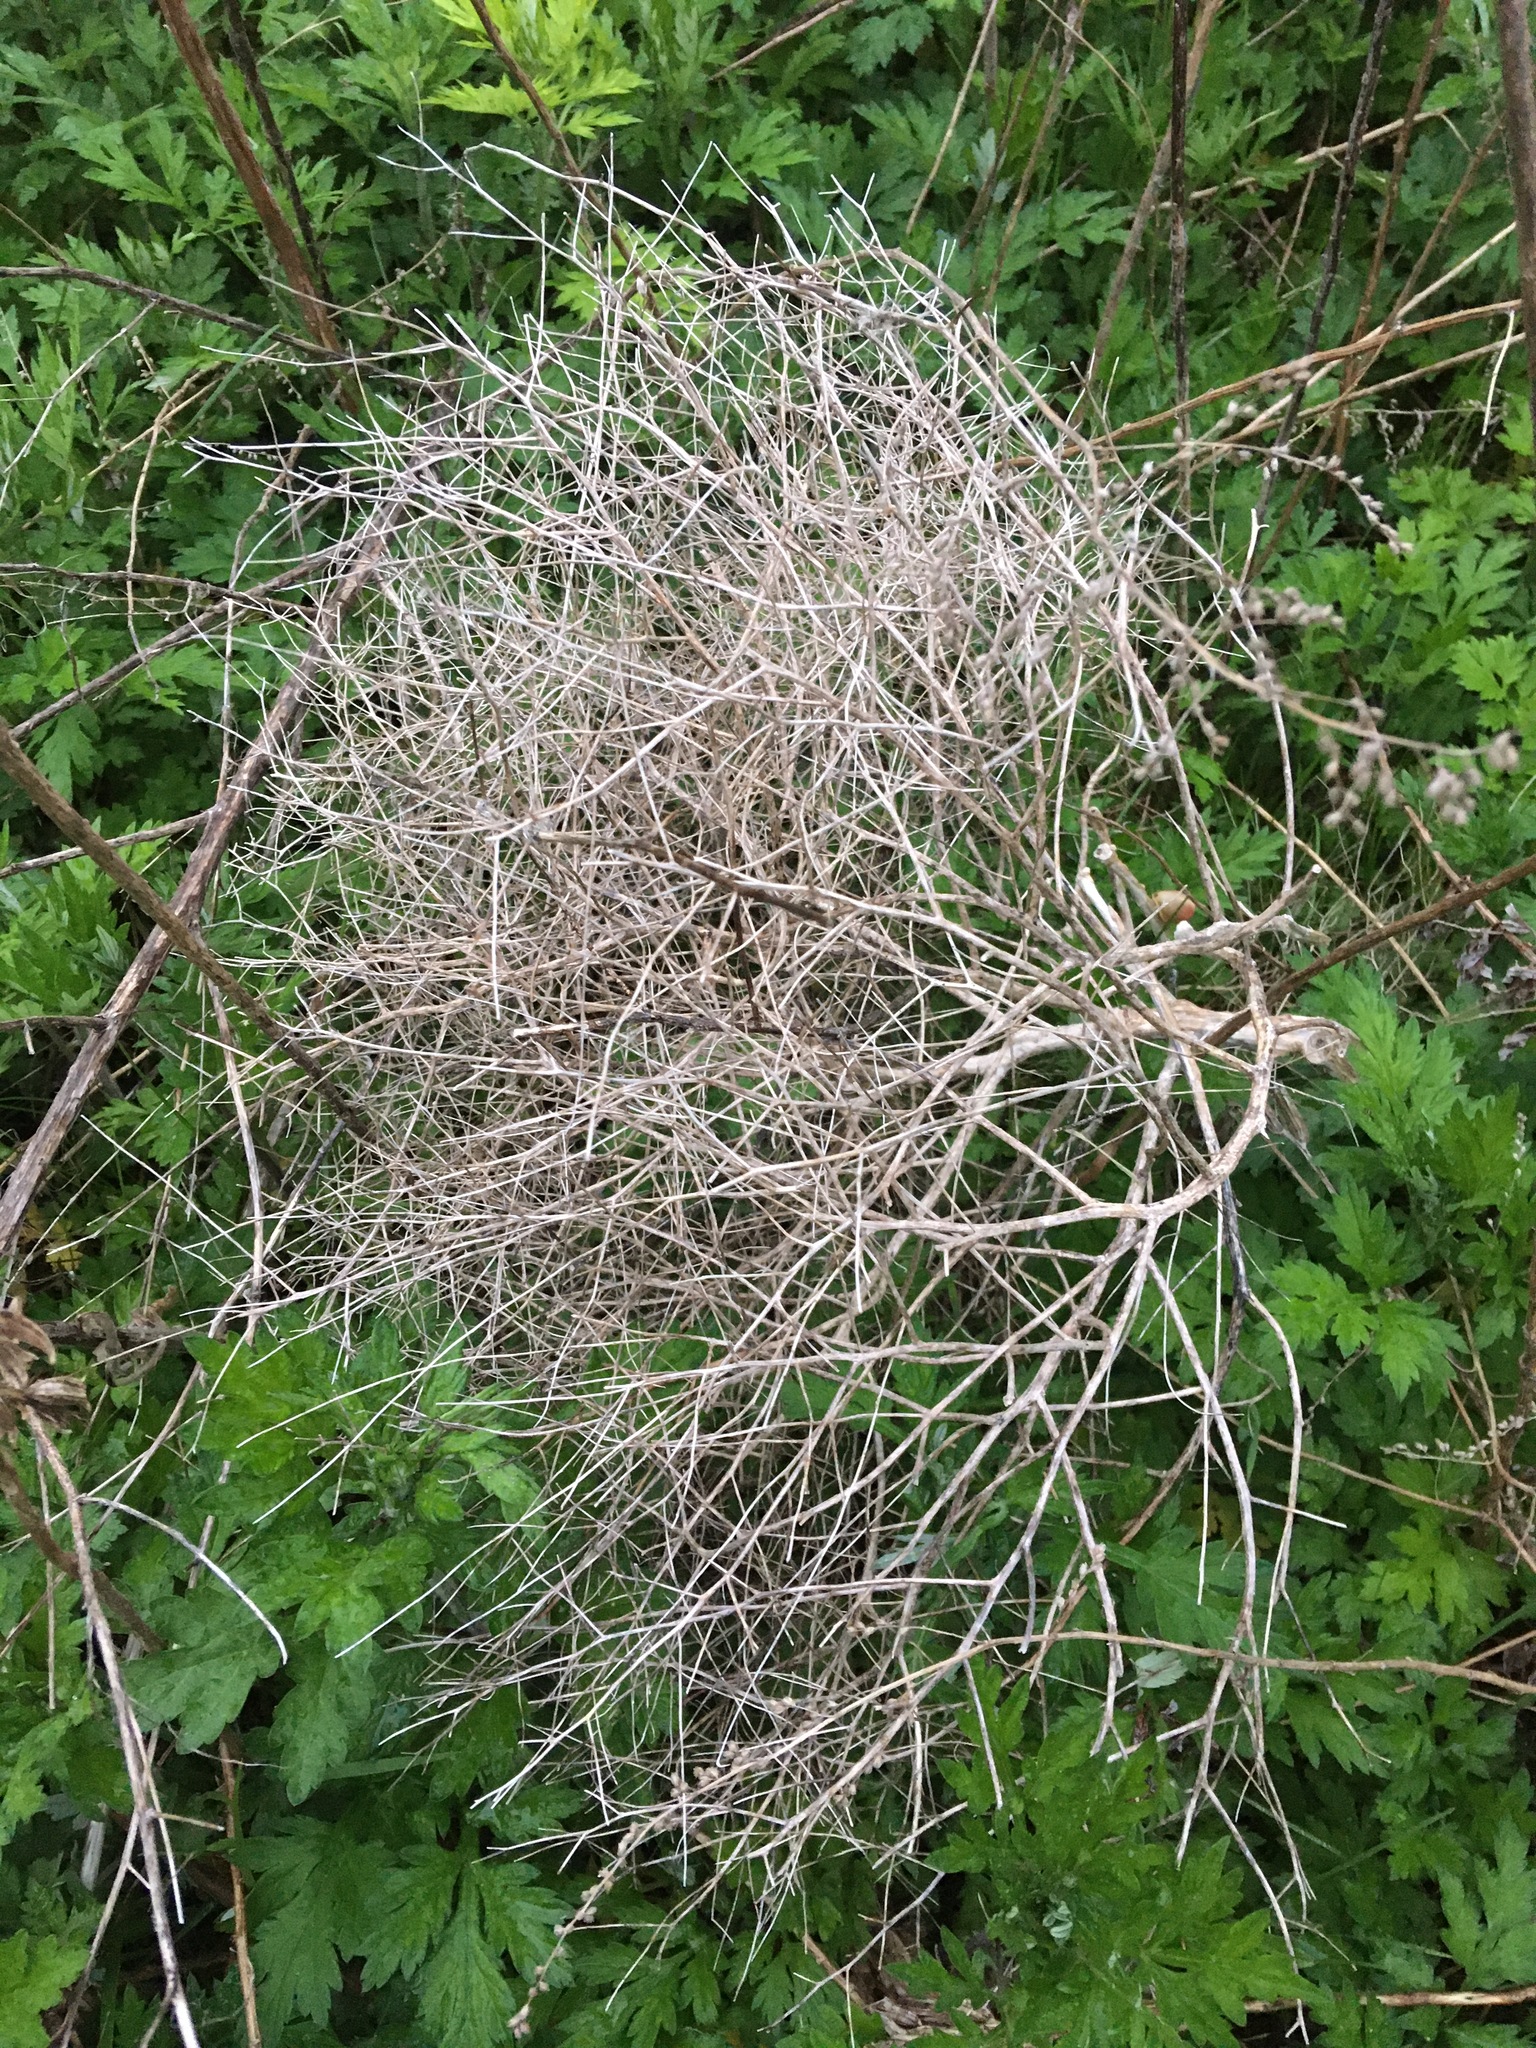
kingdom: Plantae
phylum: Tracheophyta
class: Magnoliopsida
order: Caryophyllales
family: Amaranthaceae
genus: Dysphania
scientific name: Dysphania atriplicifolia
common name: Plains tumbleweed
